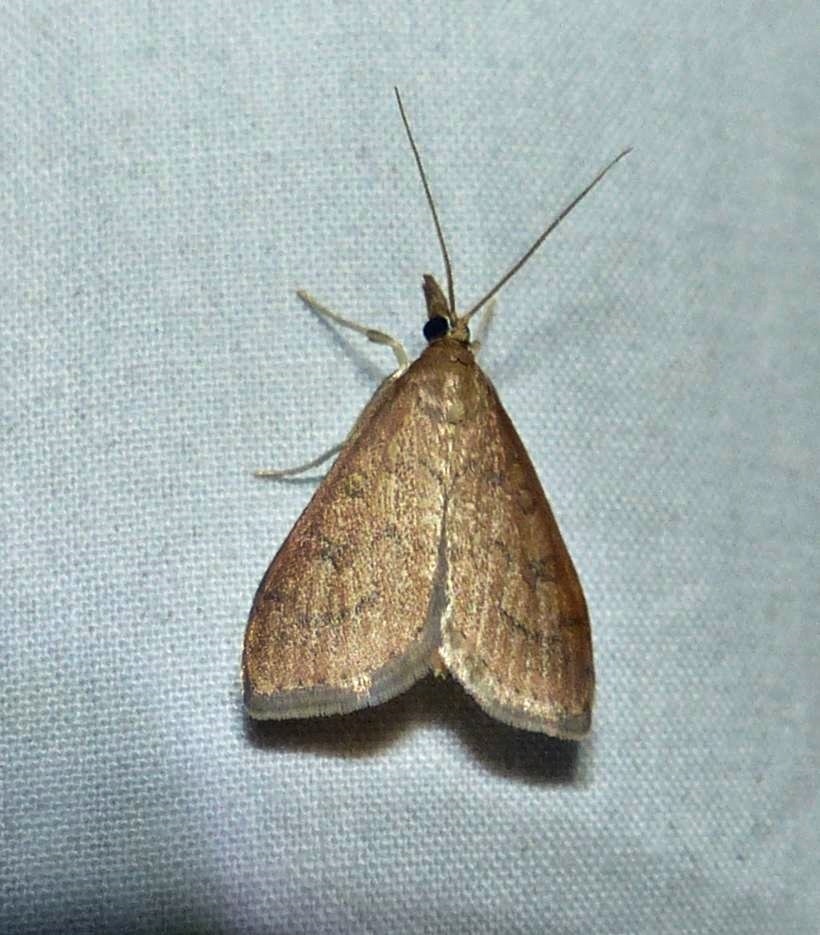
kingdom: Animalia
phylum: Arthropoda
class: Insecta
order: Lepidoptera
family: Crambidae
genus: Udea
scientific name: Udea rubigalis
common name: Celery leaftier moth
